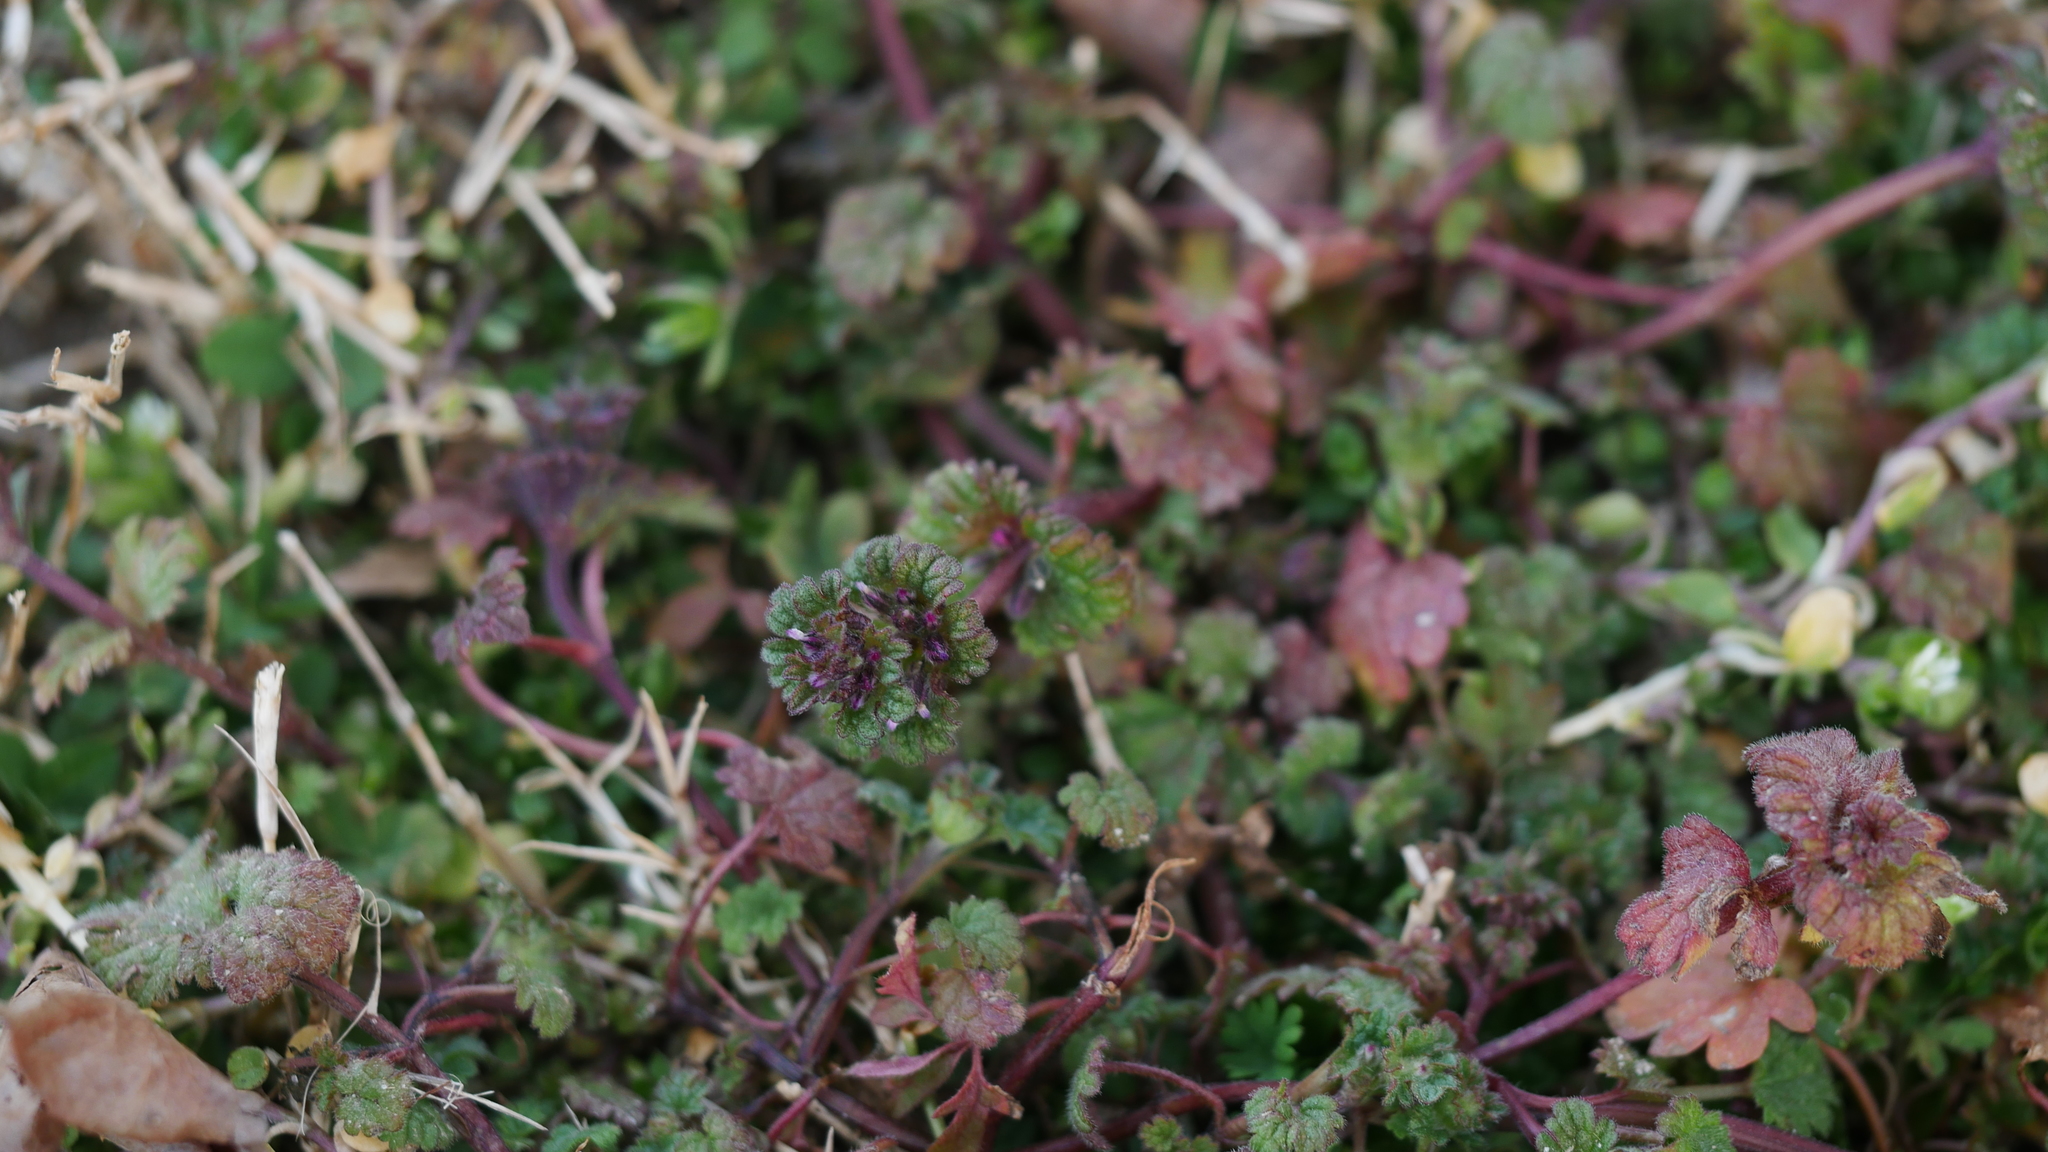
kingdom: Plantae
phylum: Tracheophyta
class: Magnoliopsida
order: Lamiales
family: Lamiaceae
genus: Lamium
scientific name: Lamium amplexicaule
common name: Henbit dead-nettle
